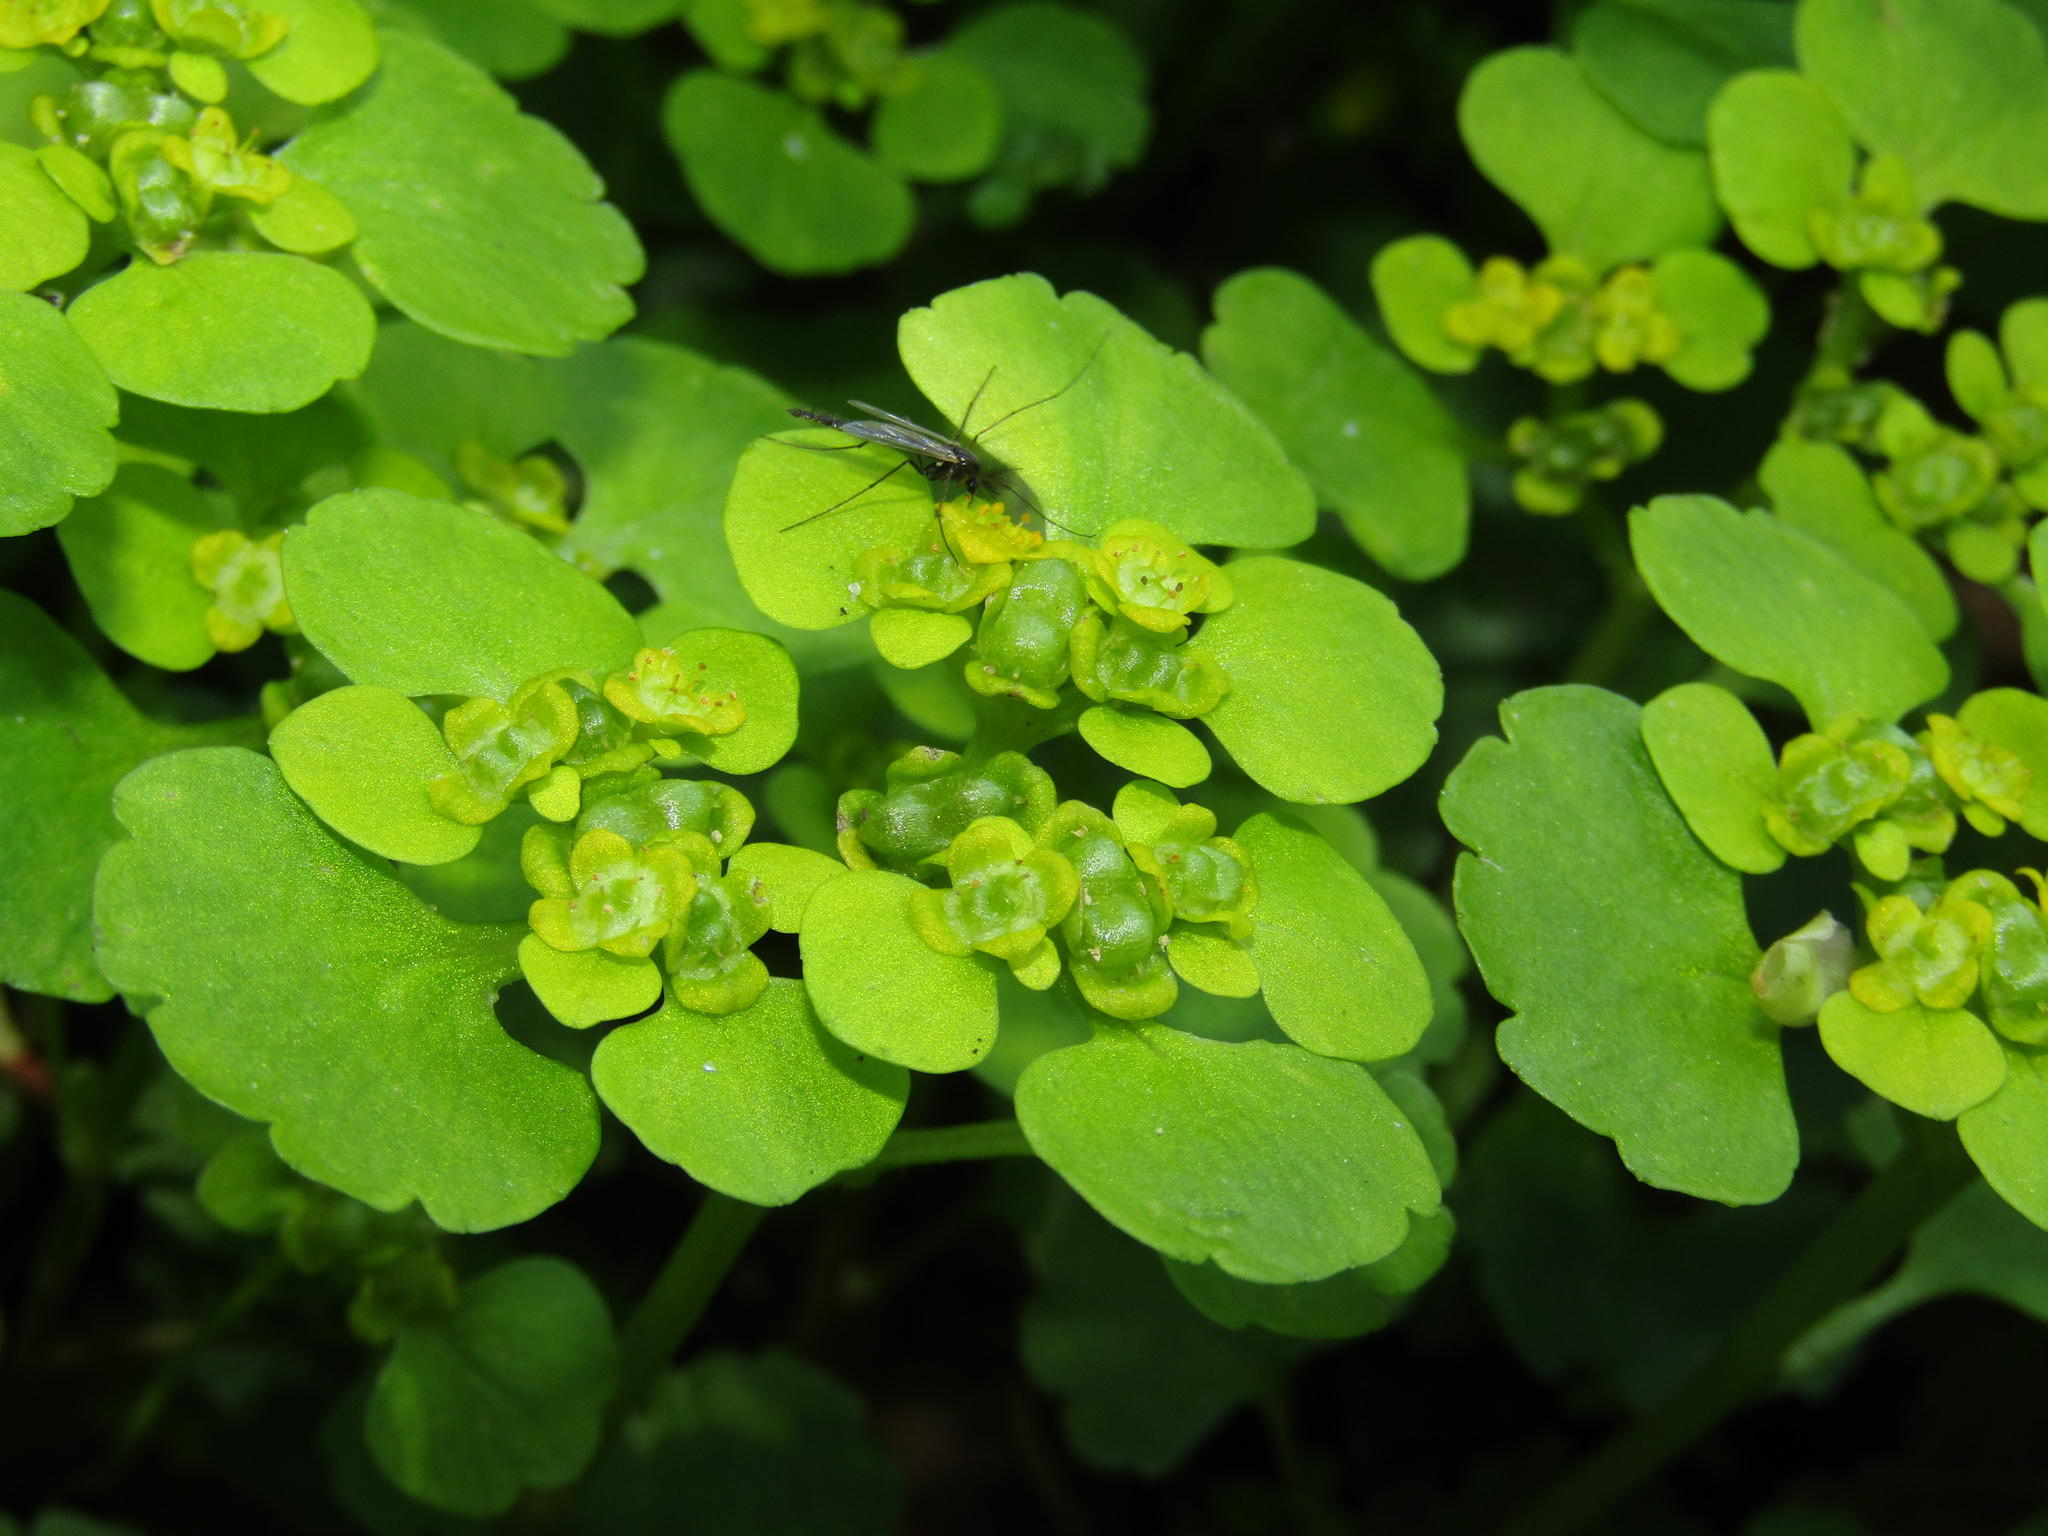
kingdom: Plantae
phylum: Tracheophyta
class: Magnoliopsida
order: Saxifragales
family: Saxifragaceae
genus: Chrysosplenium
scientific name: Chrysosplenium alternifolium
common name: Alternate-leaved golden-saxifrage
